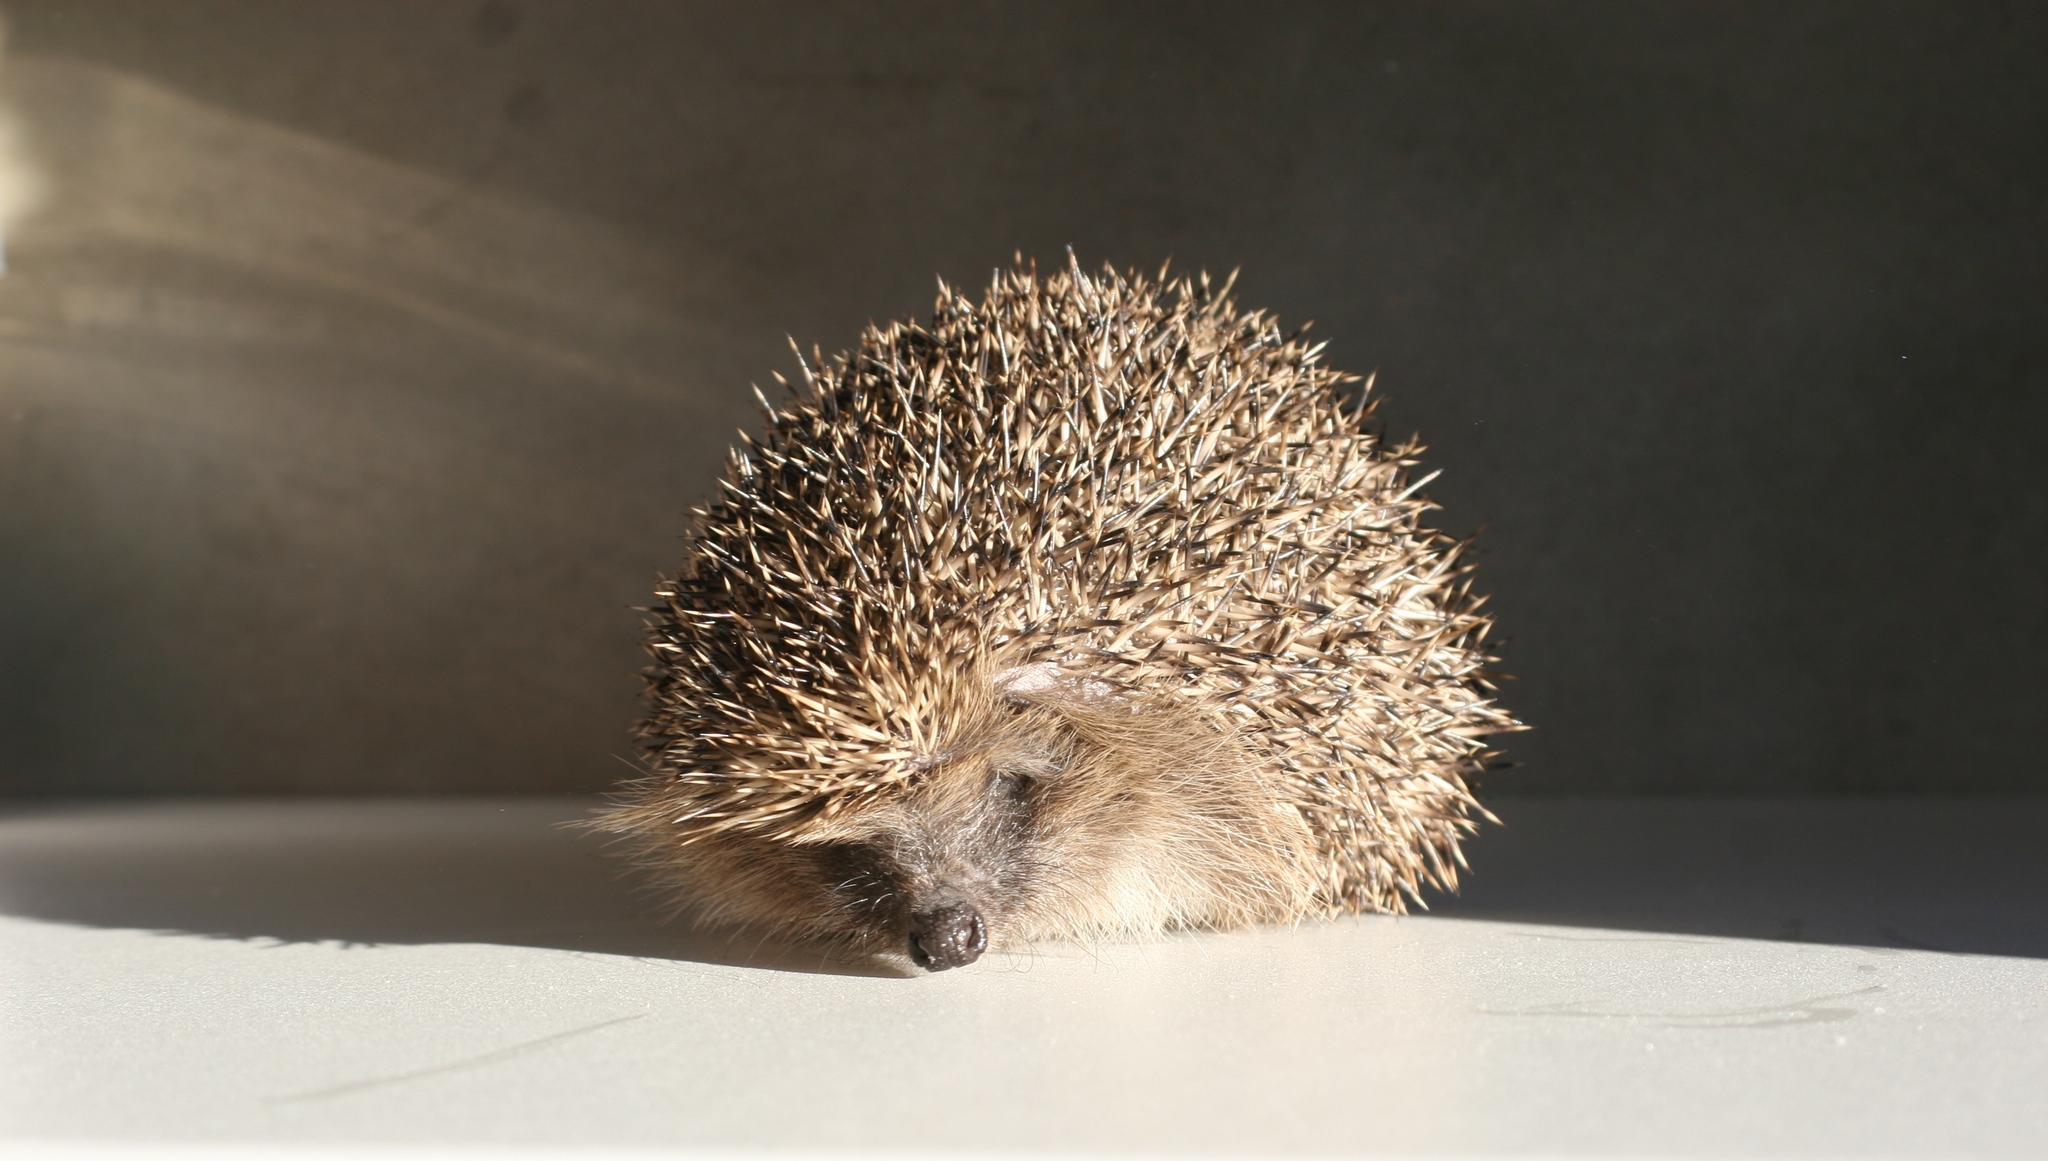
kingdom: Animalia
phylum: Chordata
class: Mammalia
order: Erinaceomorpha
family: Erinaceidae
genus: Erinaceus
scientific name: Erinaceus europaeus
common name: West european hedgehog
